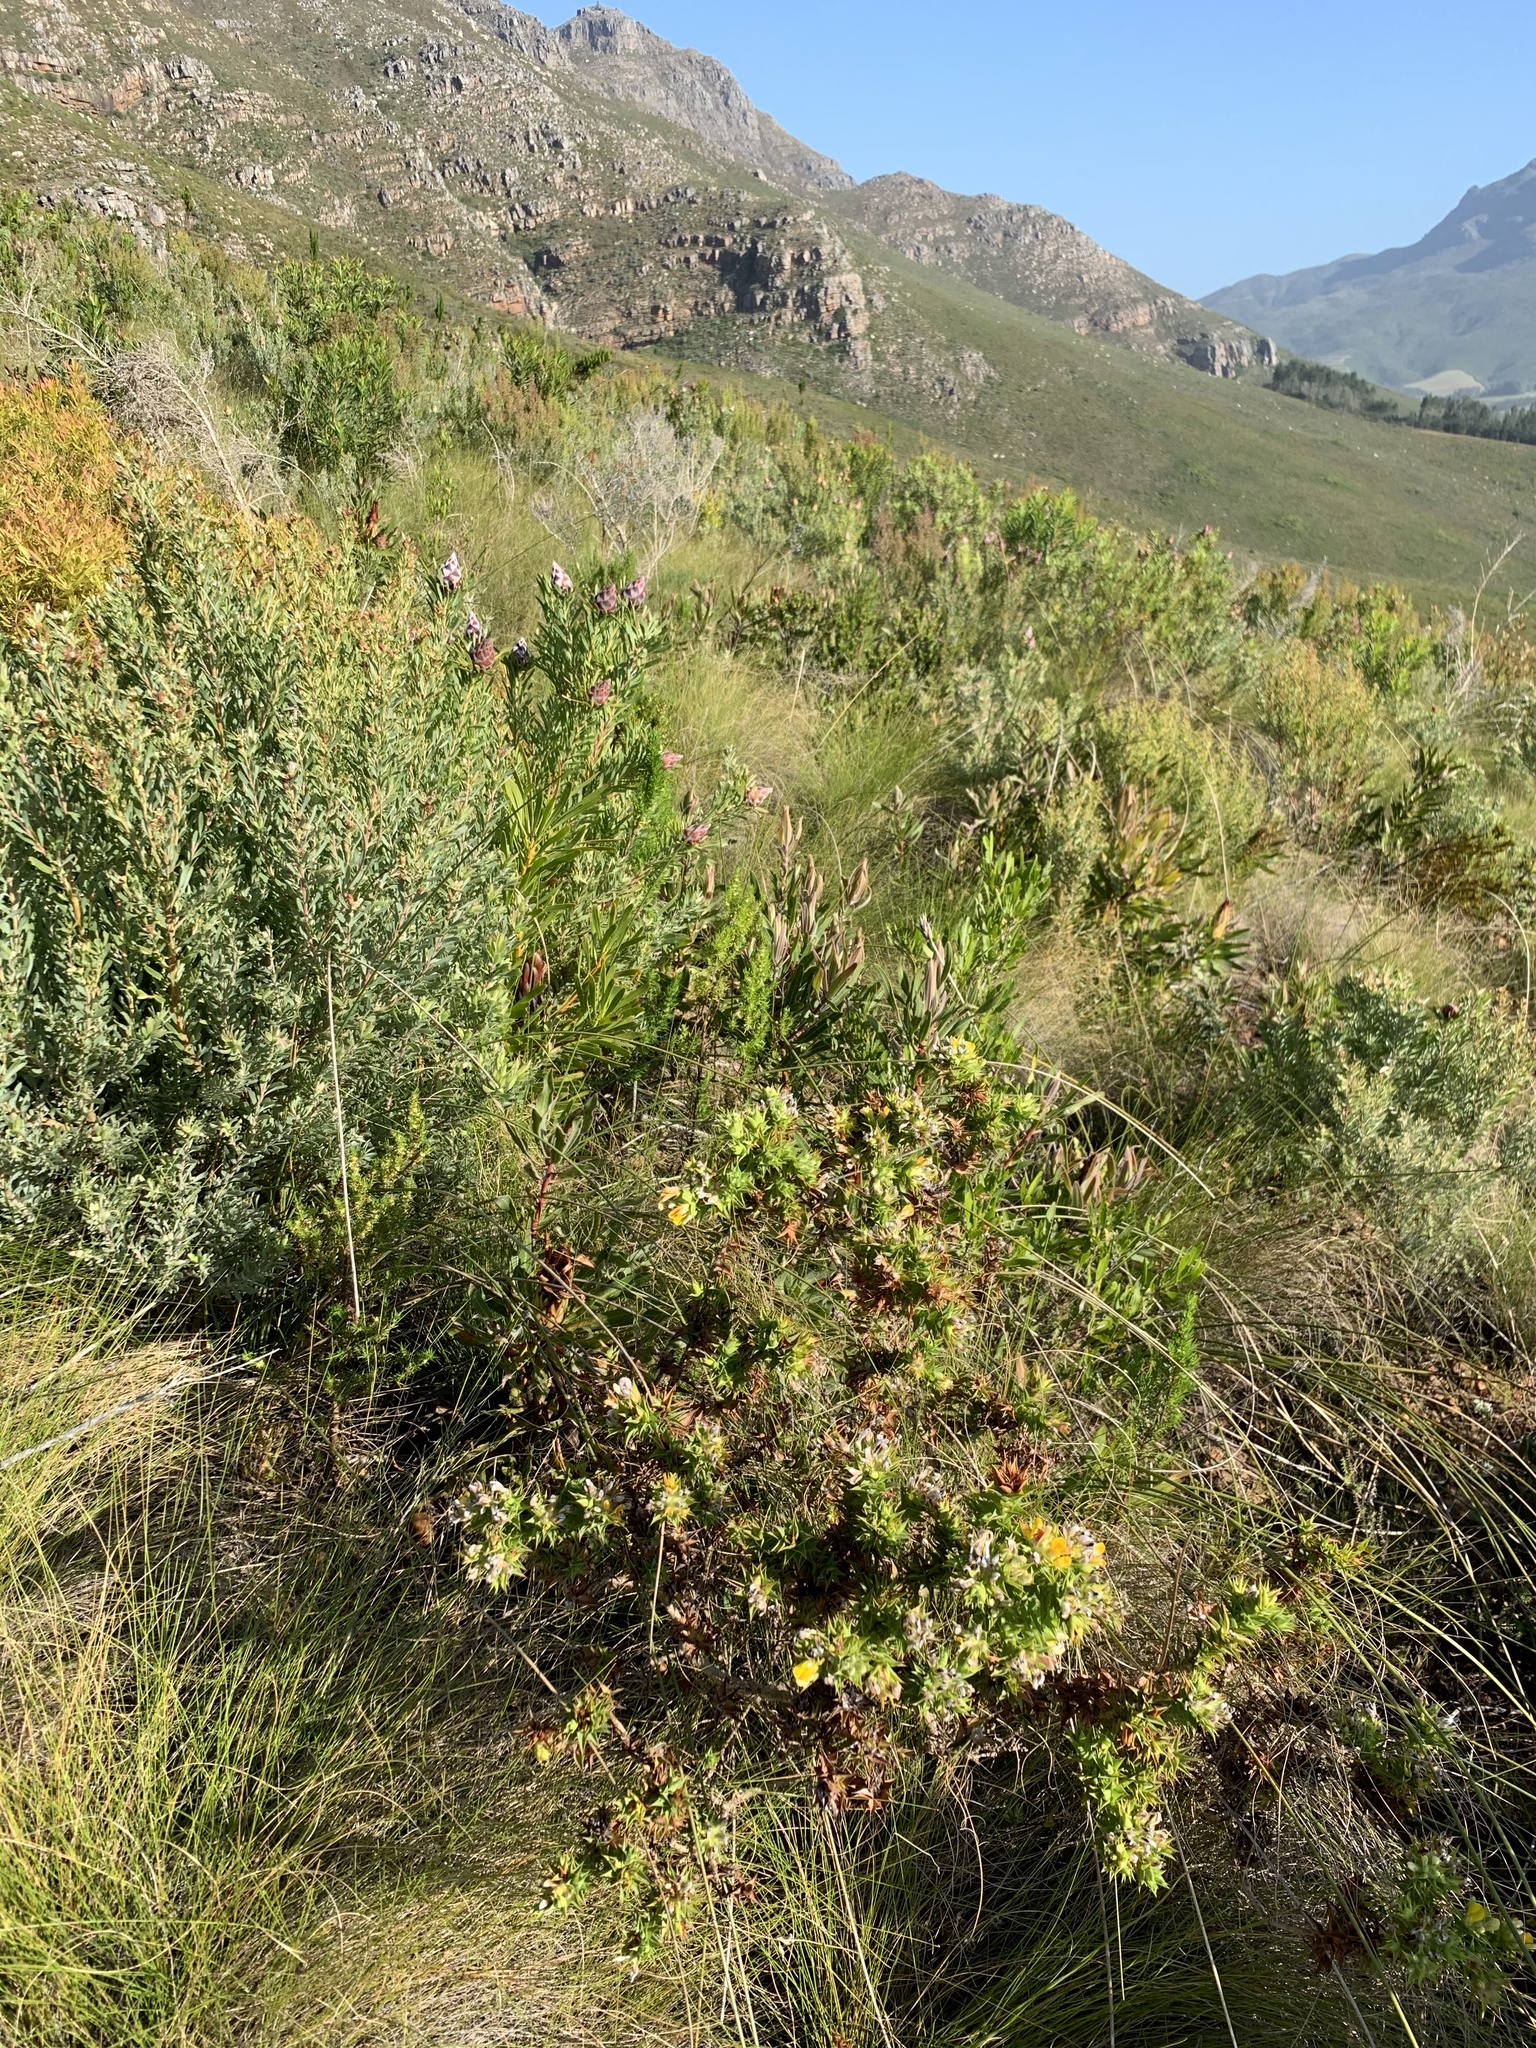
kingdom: Plantae
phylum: Tracheophyta
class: Magnoliopsida
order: Fabales
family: Fabaceae
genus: Aspalathus
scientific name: Aspalathus cordata
